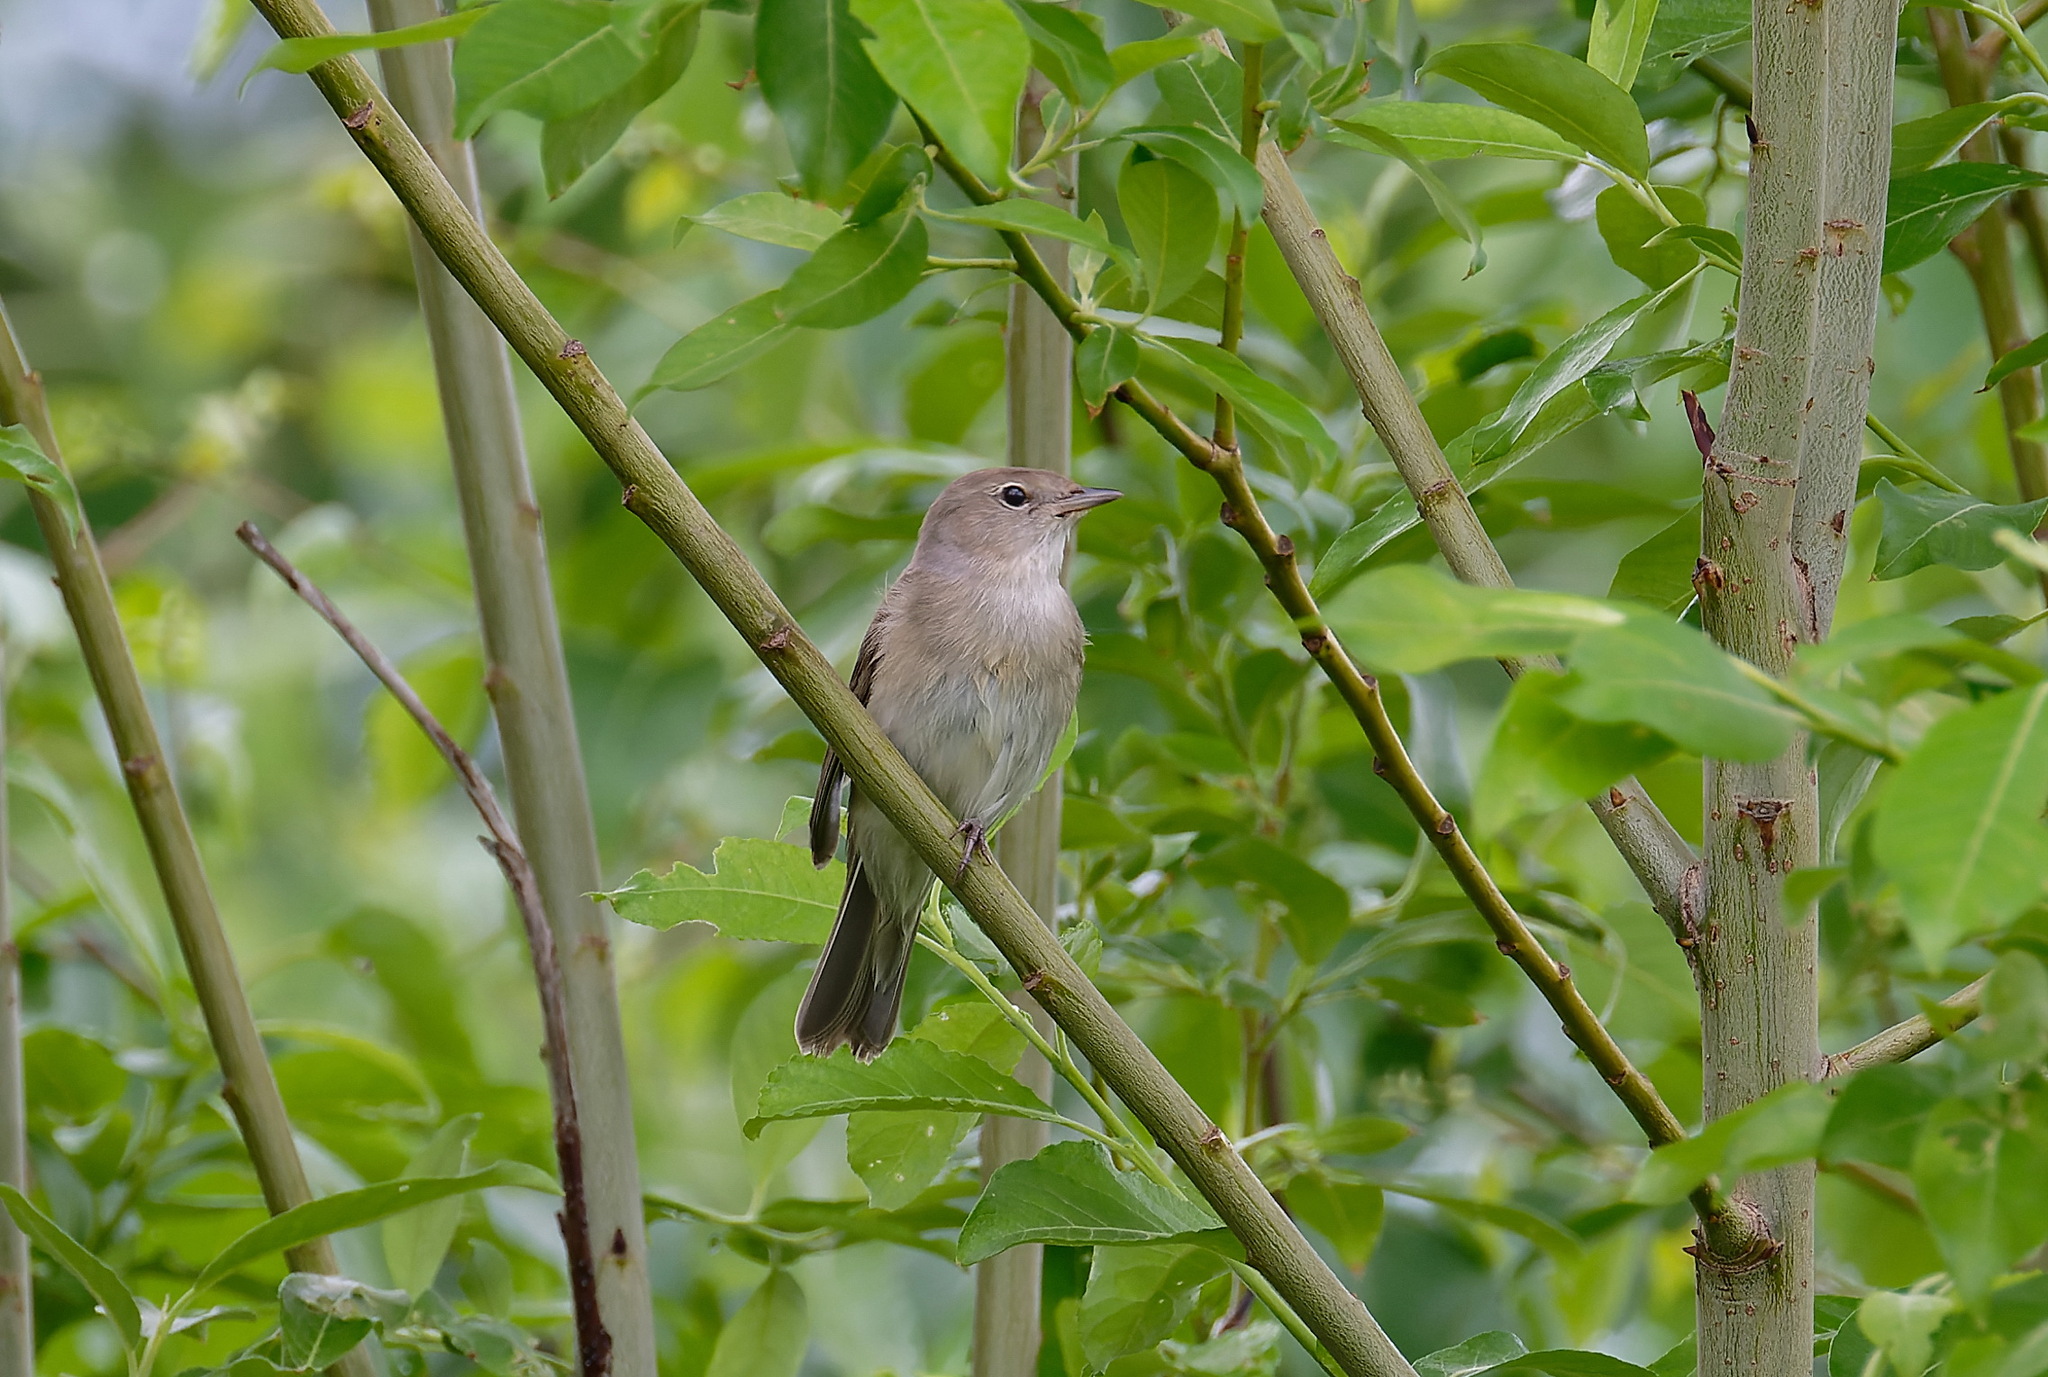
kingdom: Animalia
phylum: Chordata
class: Aves
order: Passeriformes
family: Sylviidae
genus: Sylvia
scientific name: Sylvia borin
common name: Garden warbler
